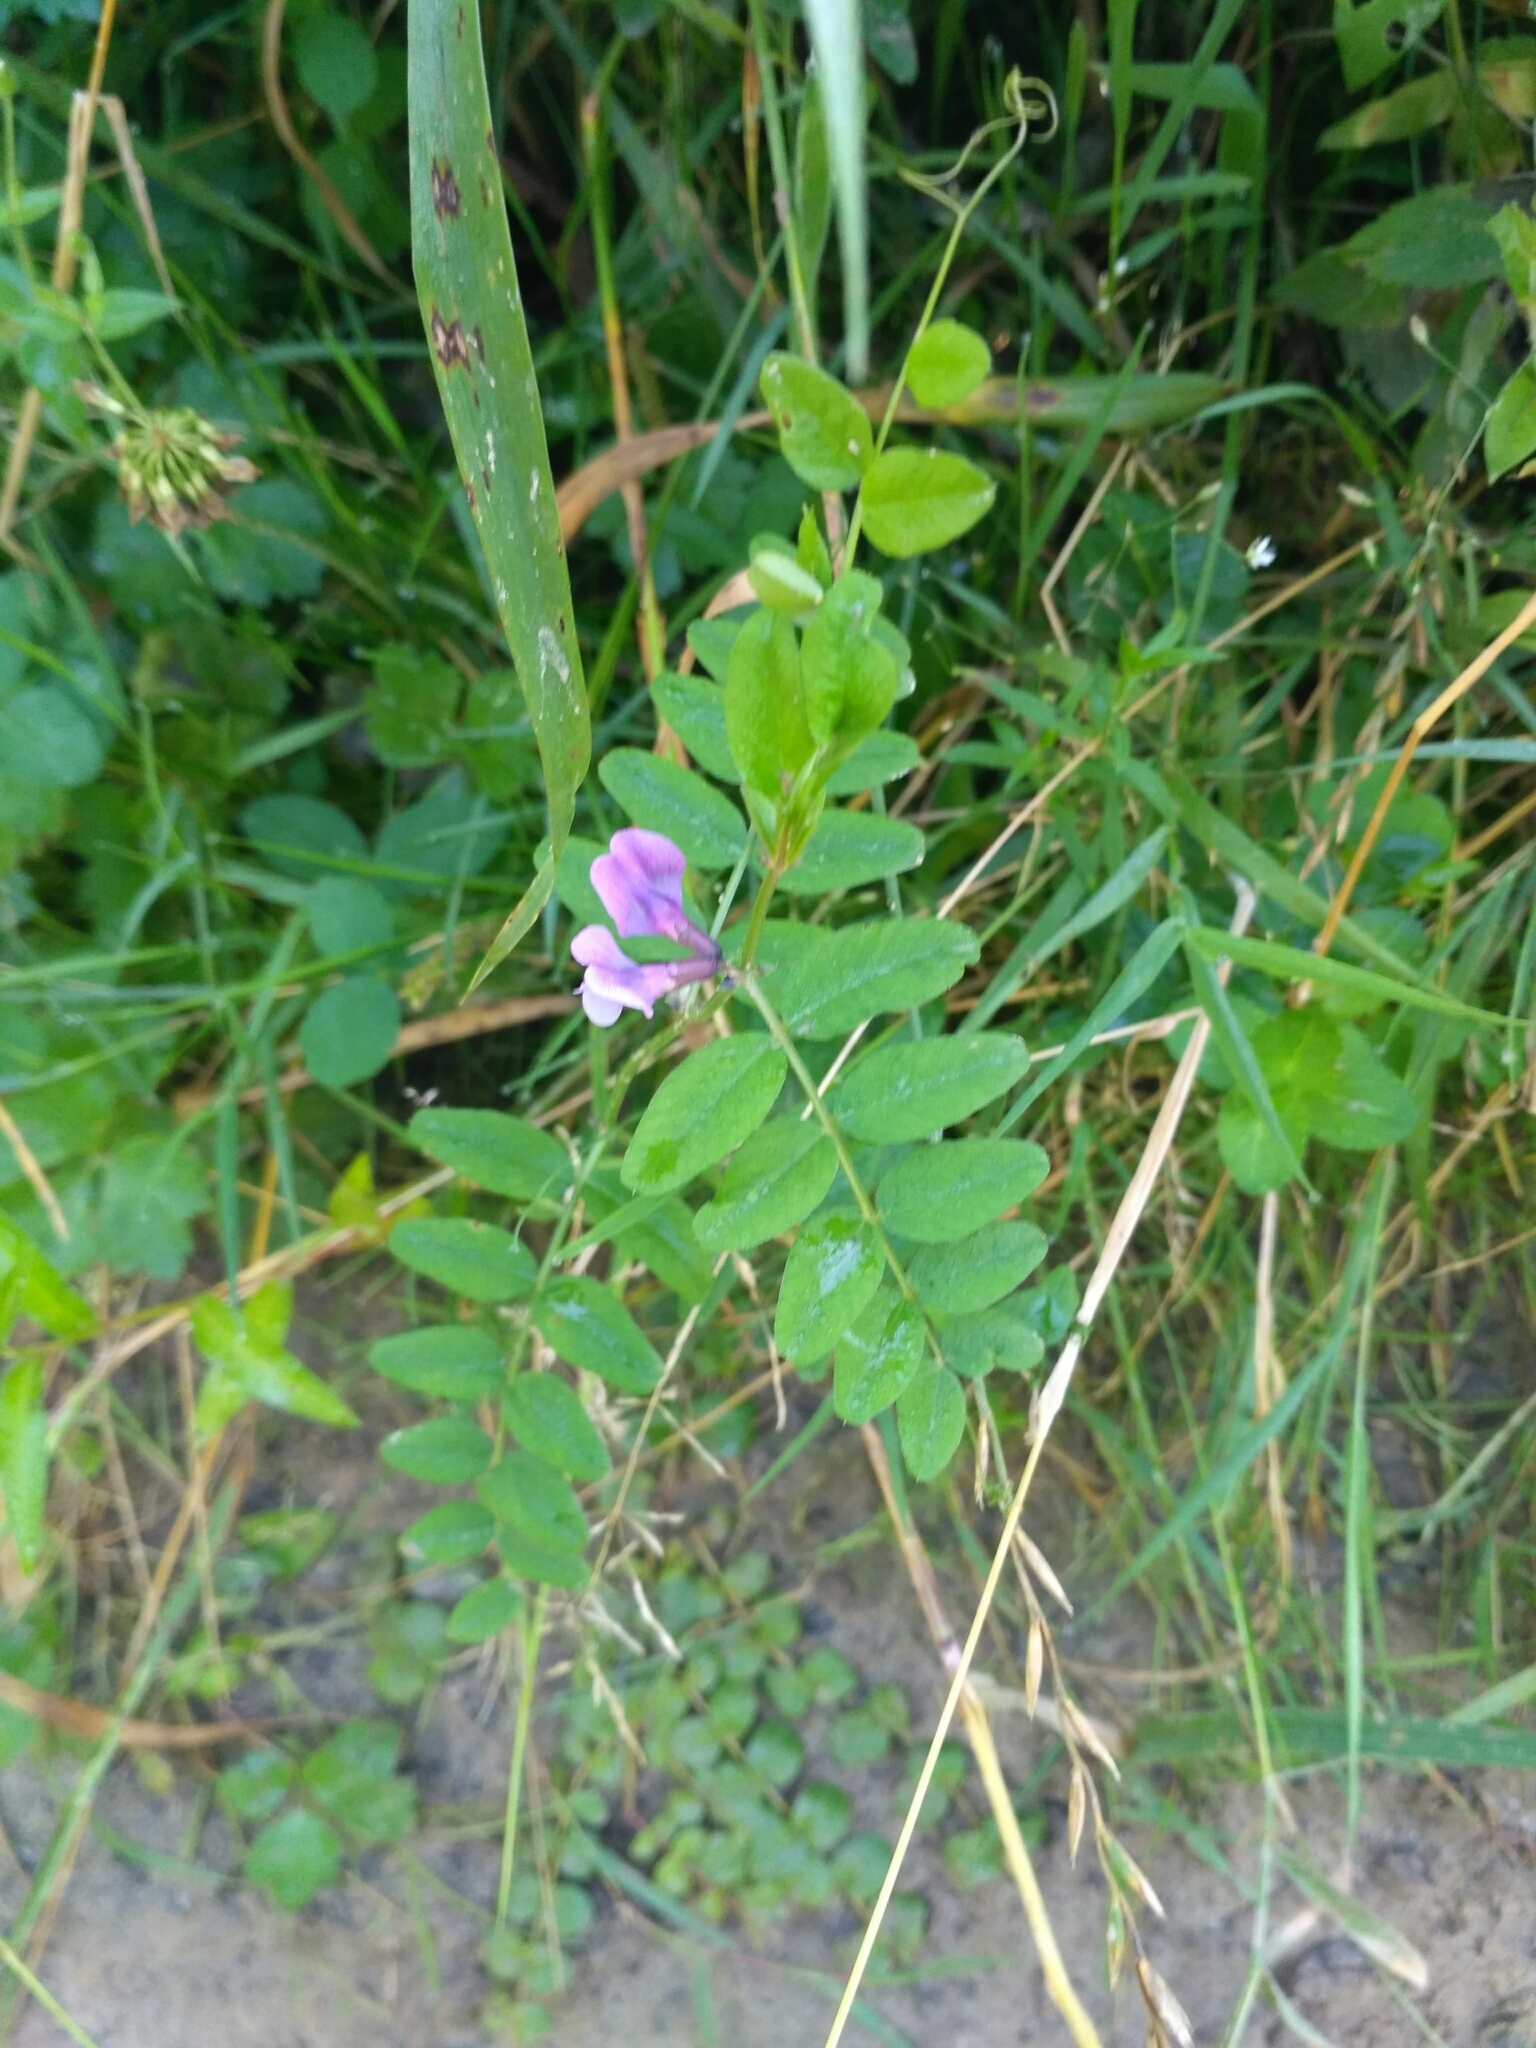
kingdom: Plantae
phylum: Tracheophyta
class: Magnoliopsida
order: Fabales
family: Fabaceae
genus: Vicia
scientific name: Vicia sepium
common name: Bush vetch
